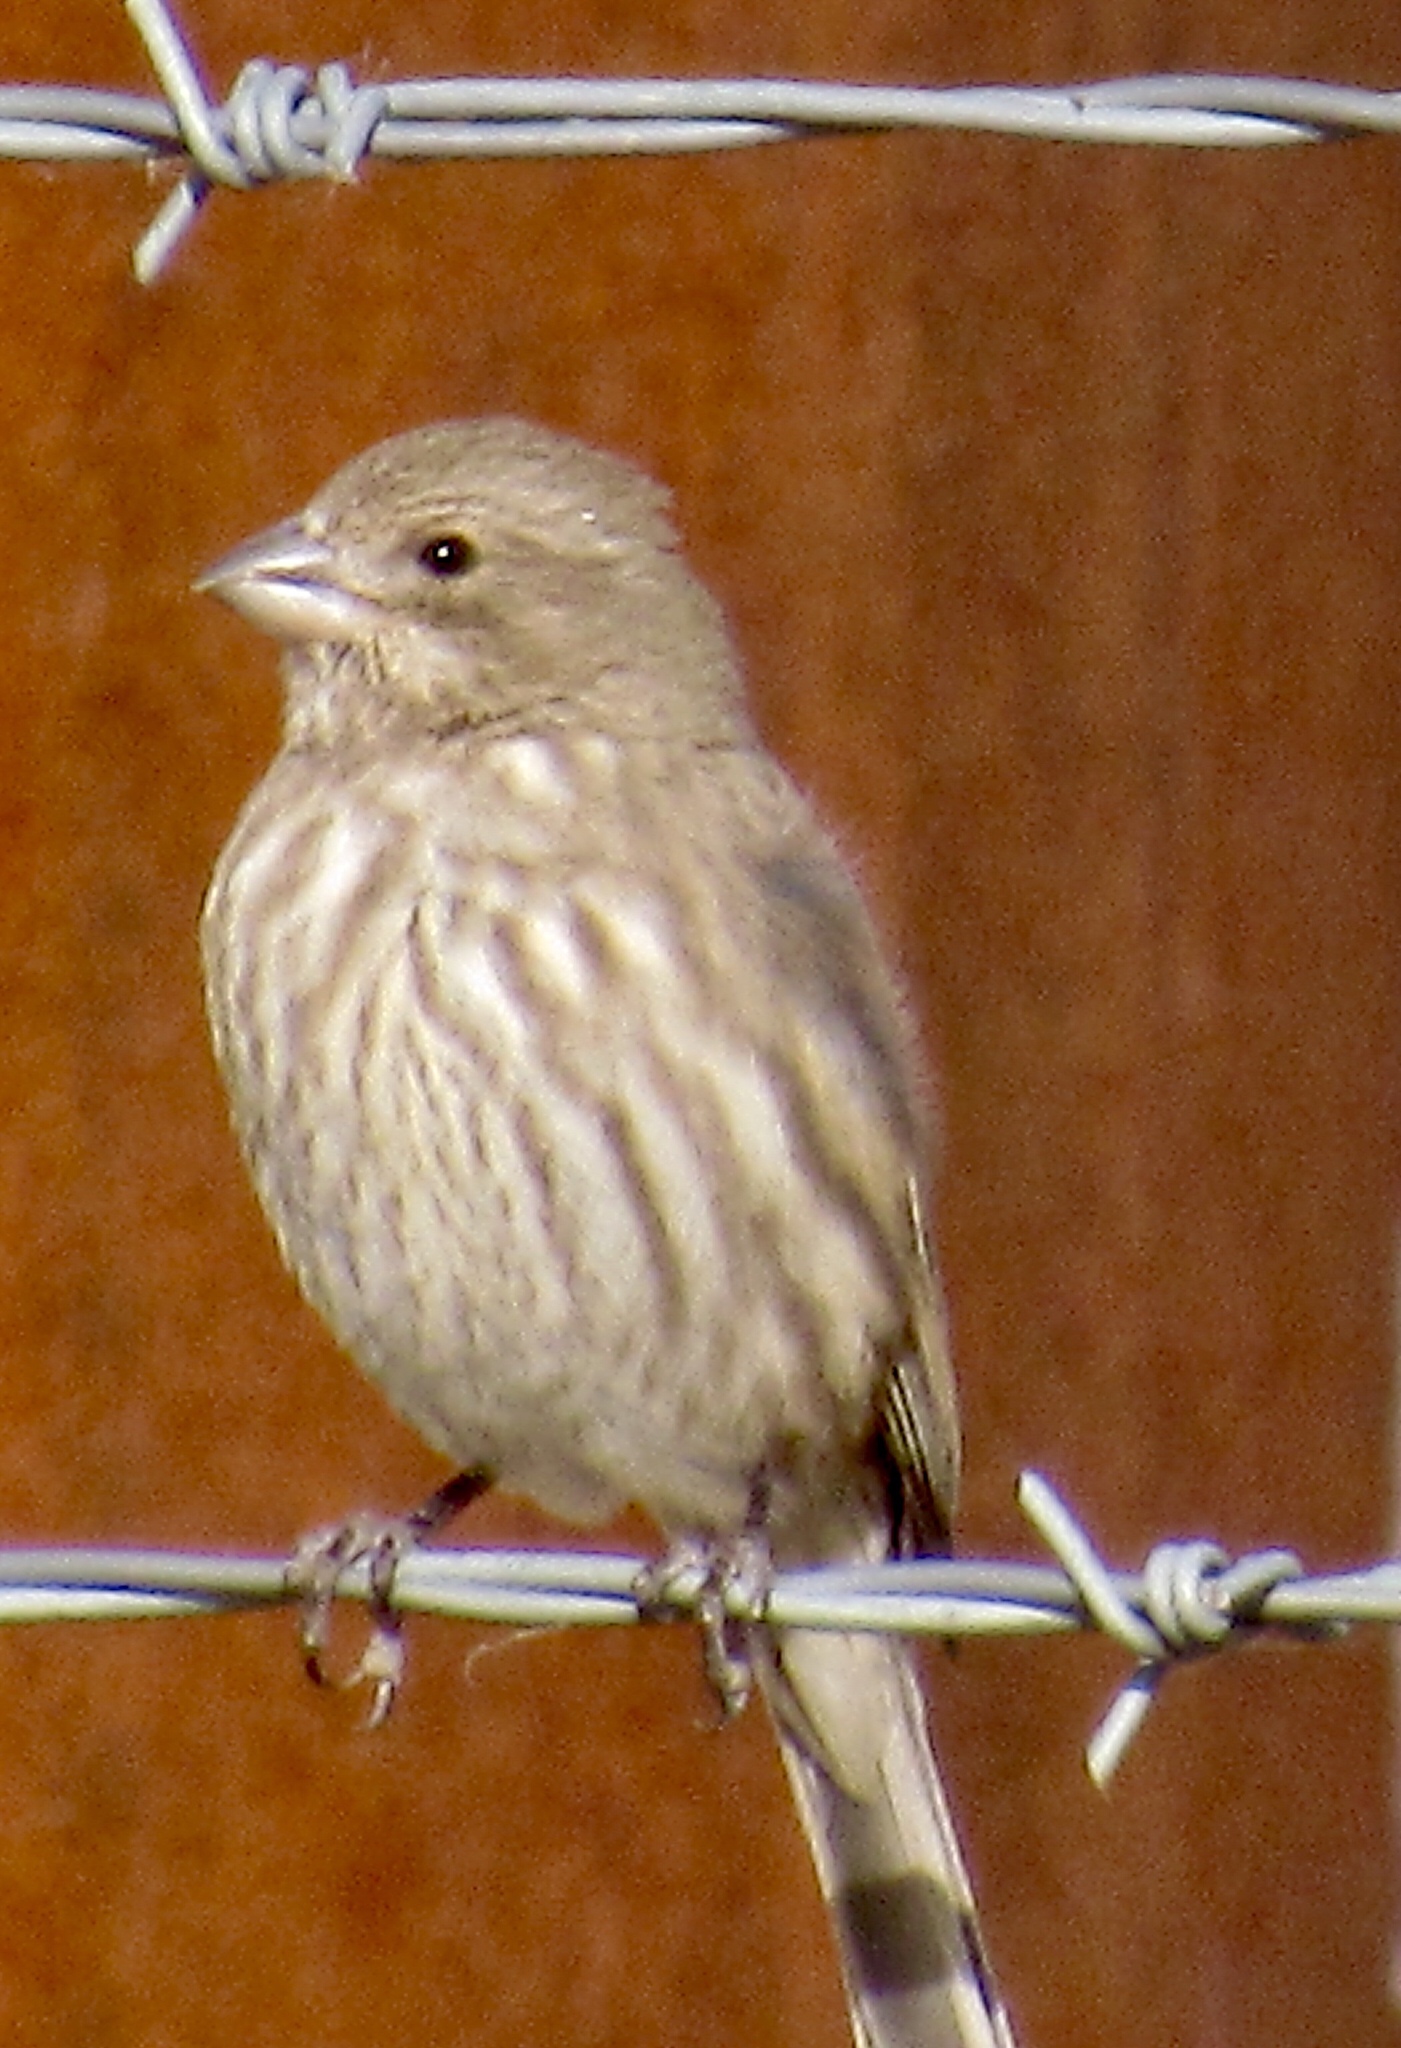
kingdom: Animalia
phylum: Chordata
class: Aves
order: Passeriformes
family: Fringillidae
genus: Haemorhous
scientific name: Haemorhous mexicanus
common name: House finch
